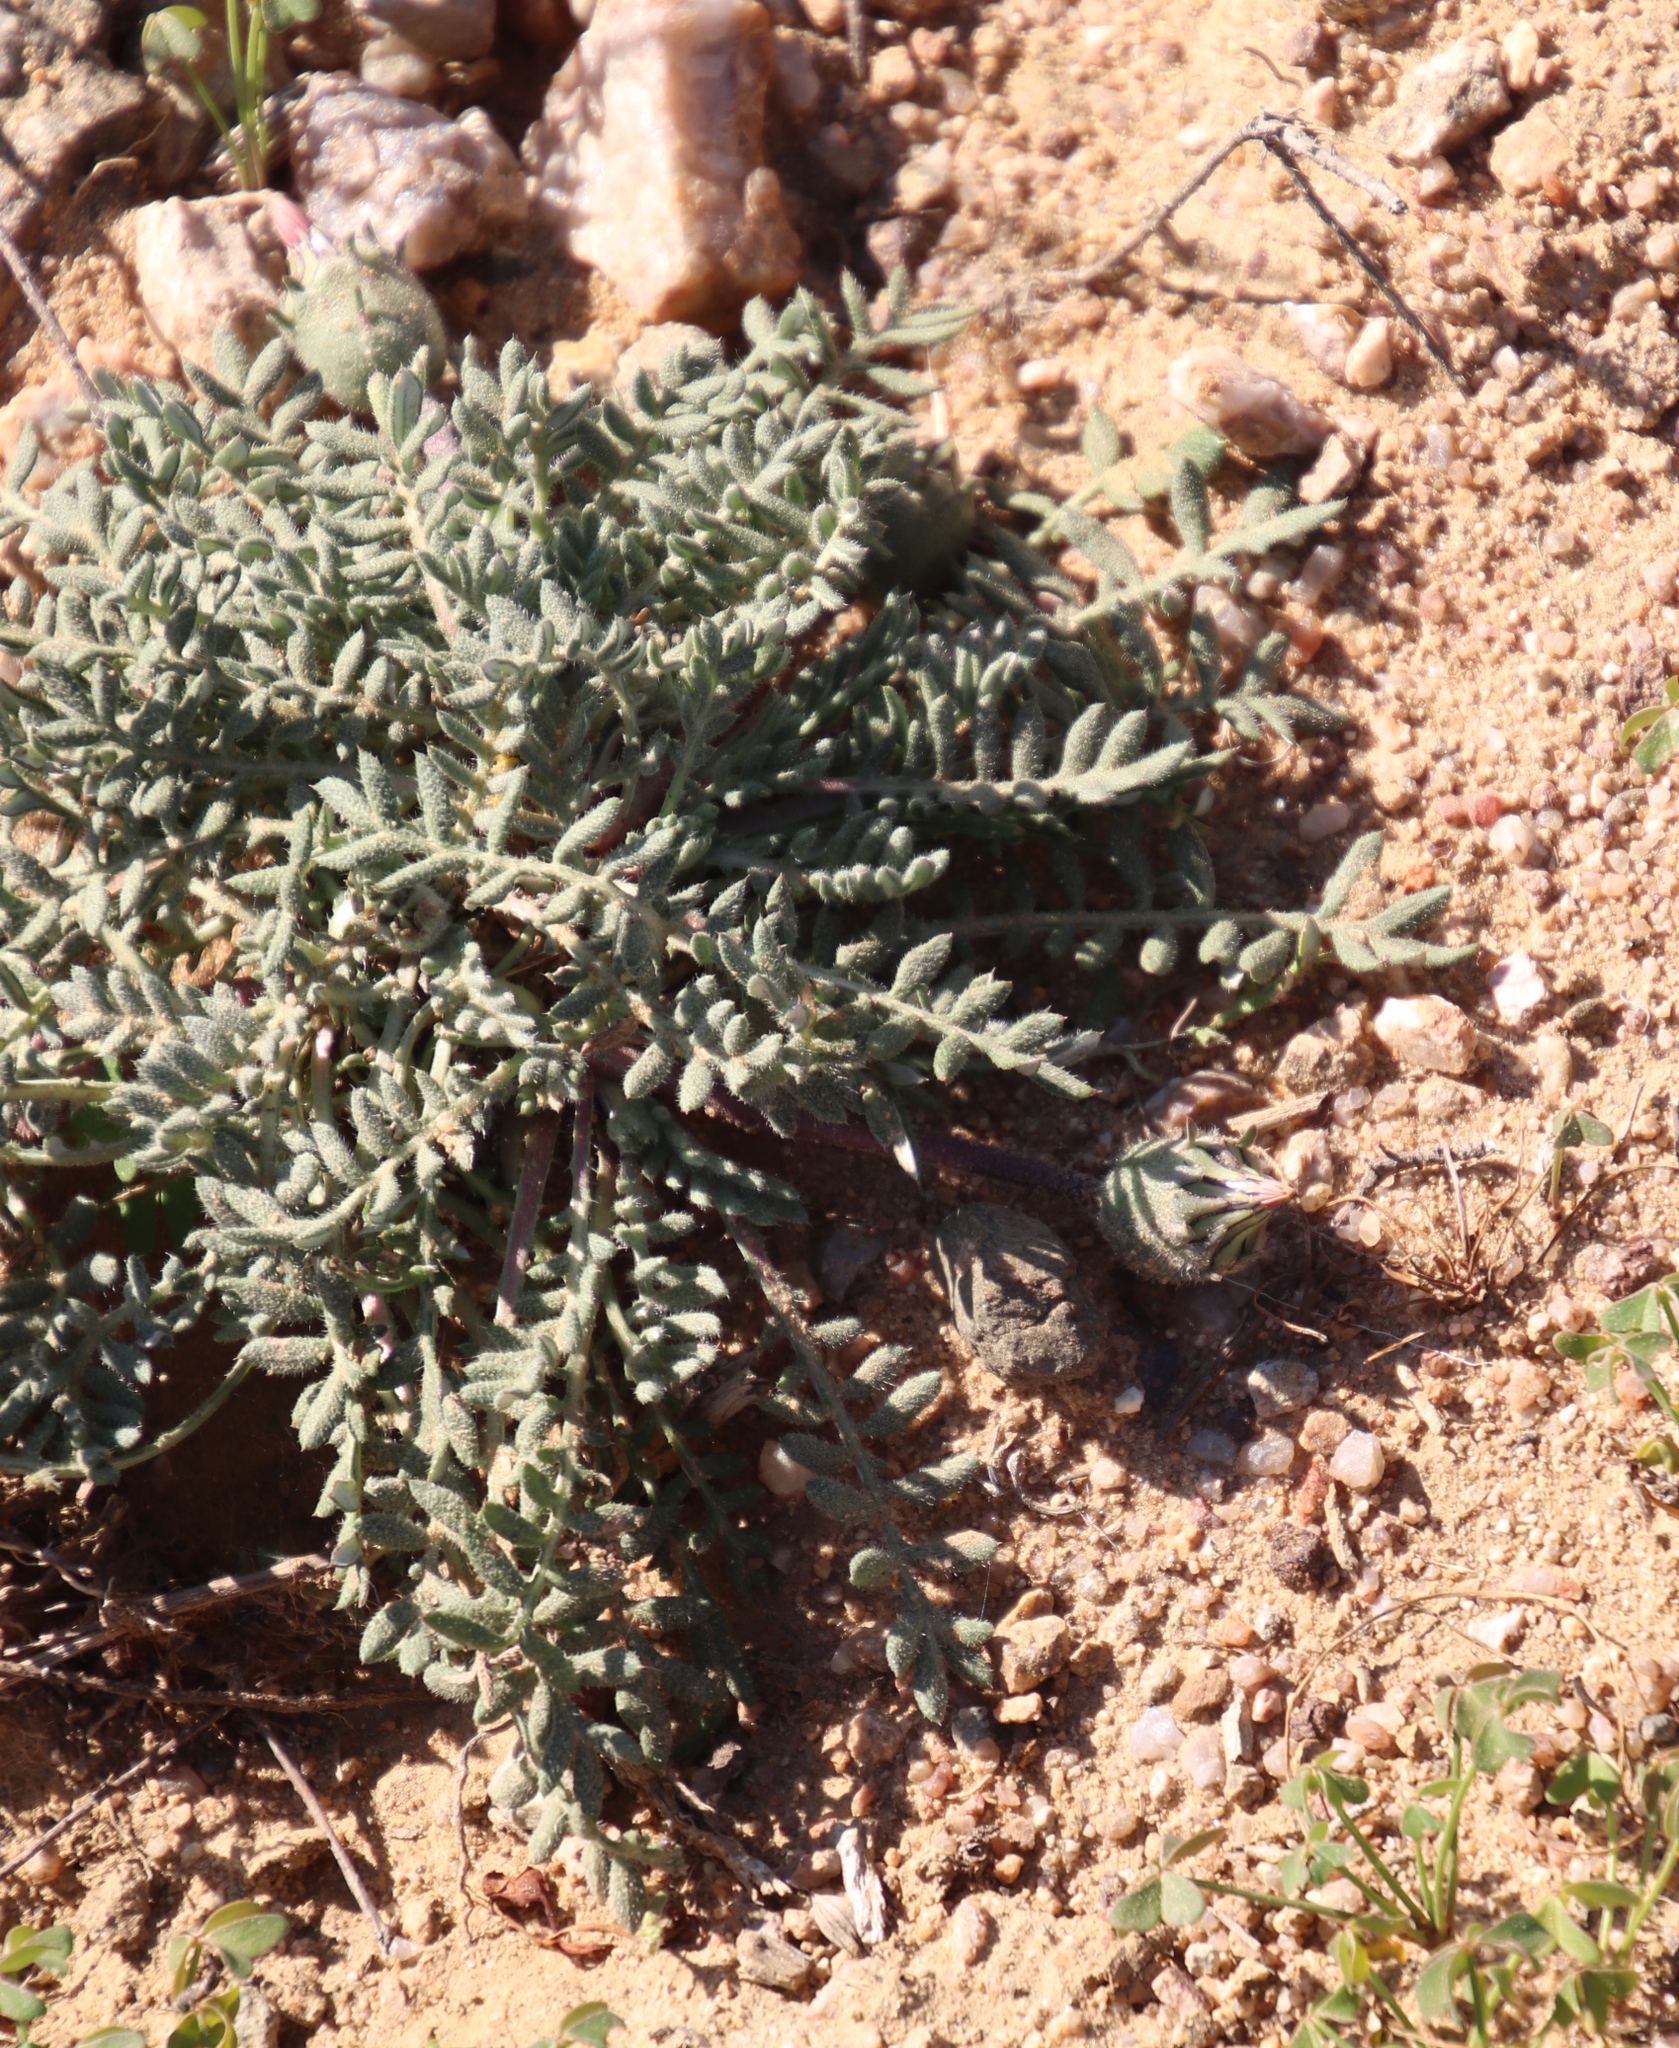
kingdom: Plantae
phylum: Tracheophyta
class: Magnoliopsida
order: Asterales
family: Asteraceae
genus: Gazania
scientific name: Gazania leiopoda
